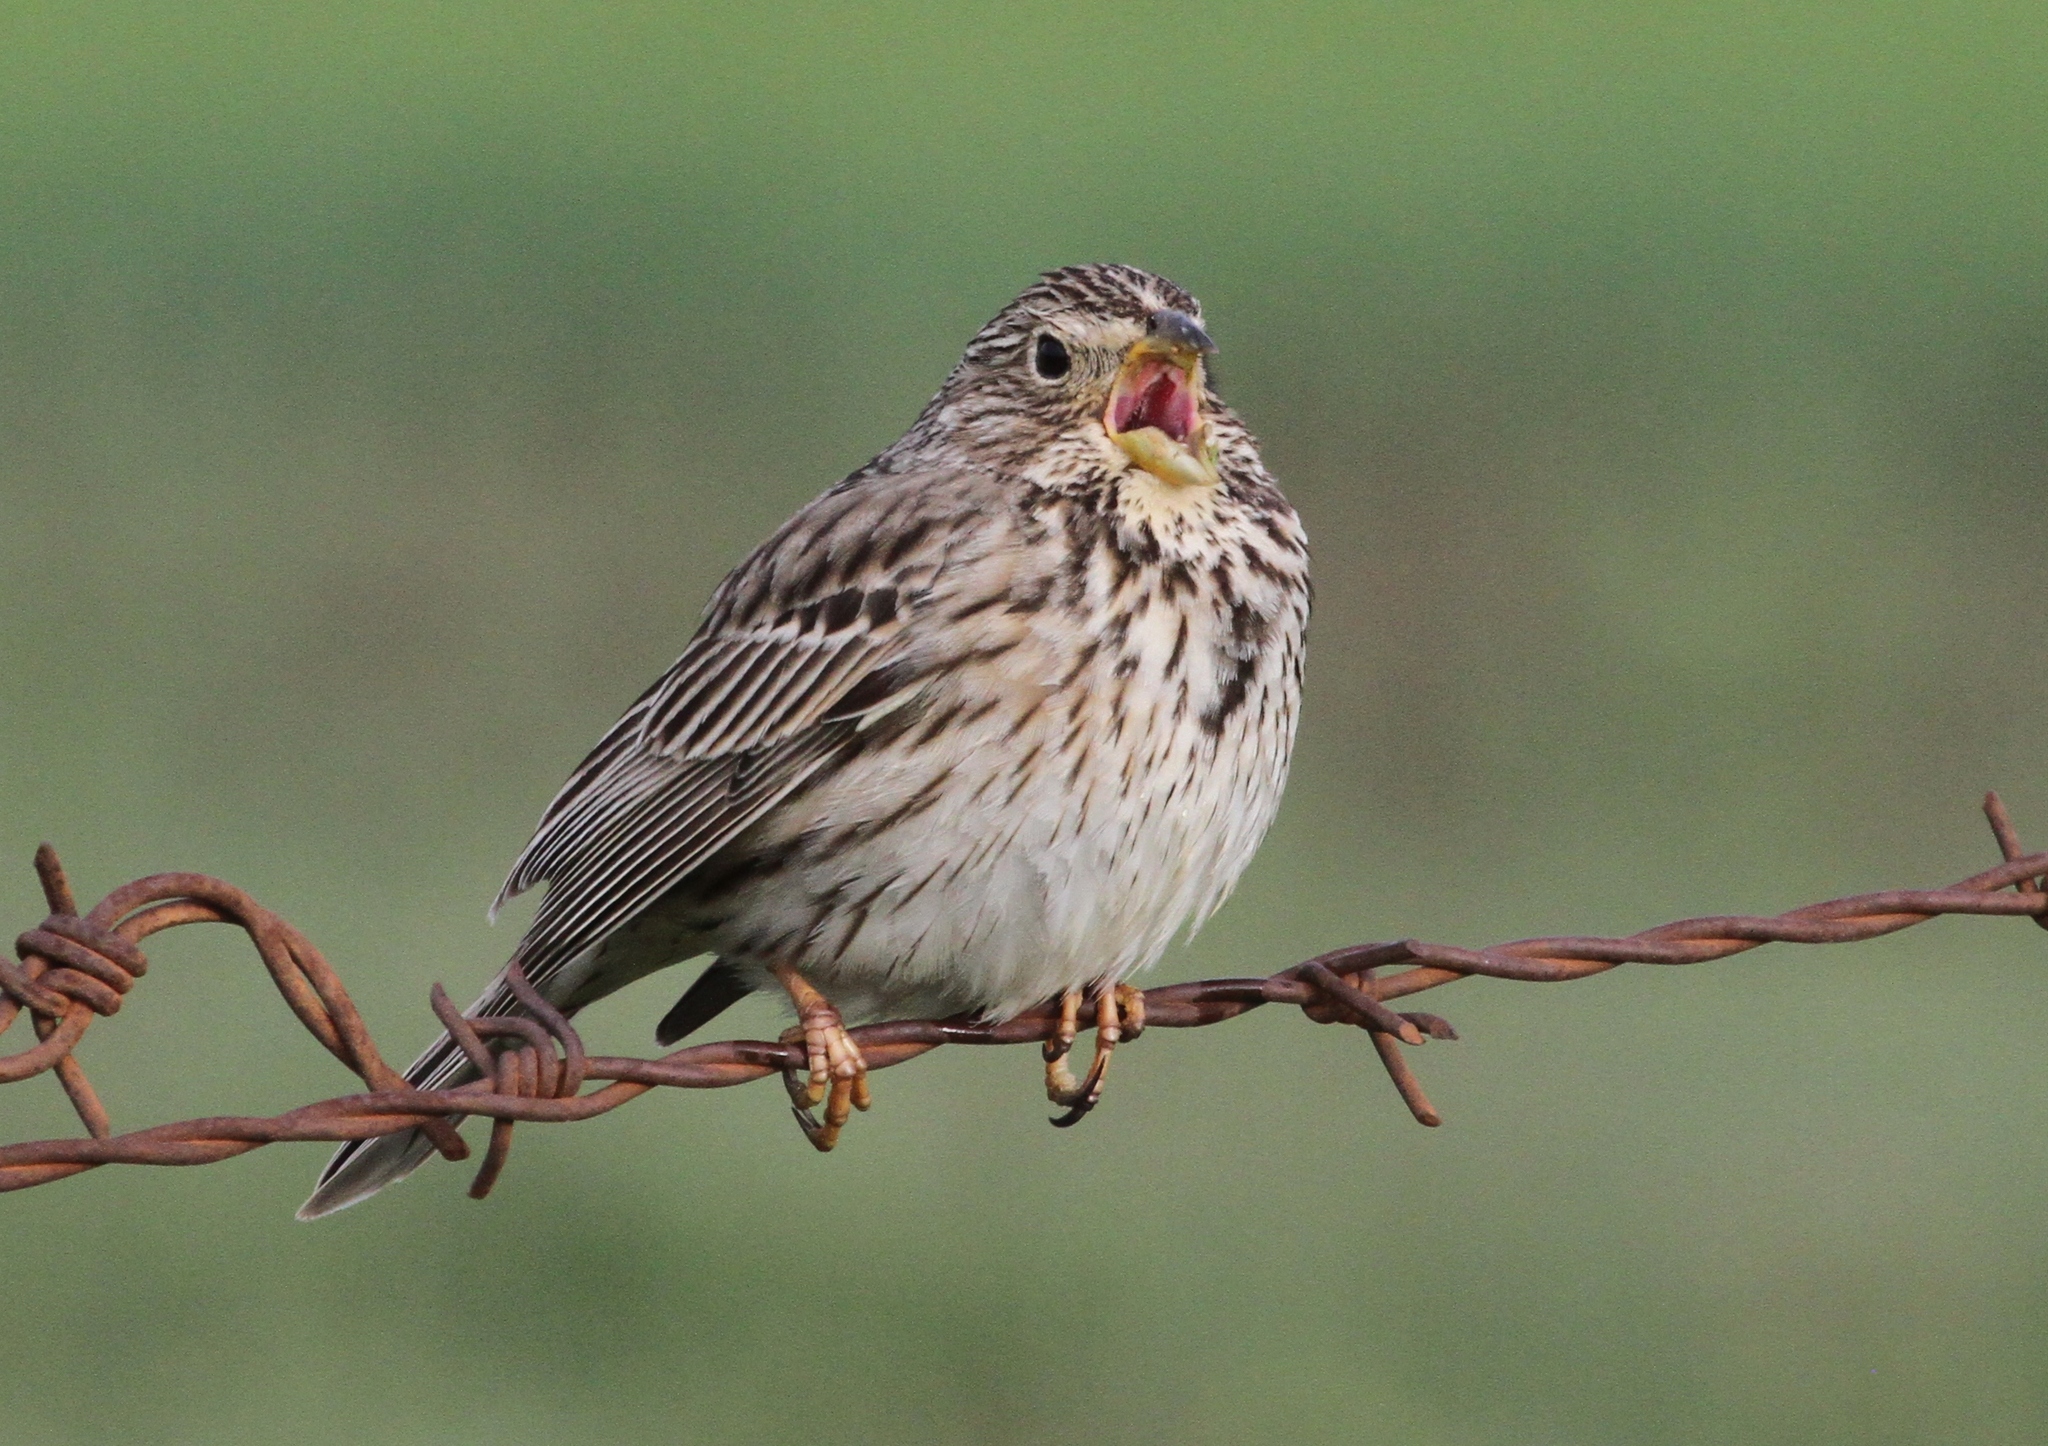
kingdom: Animalia
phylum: Chordata
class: Aves
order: Passeriformes
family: Emberizidae
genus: Emberiza
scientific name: Emberiza calandra
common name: Corn bunting
